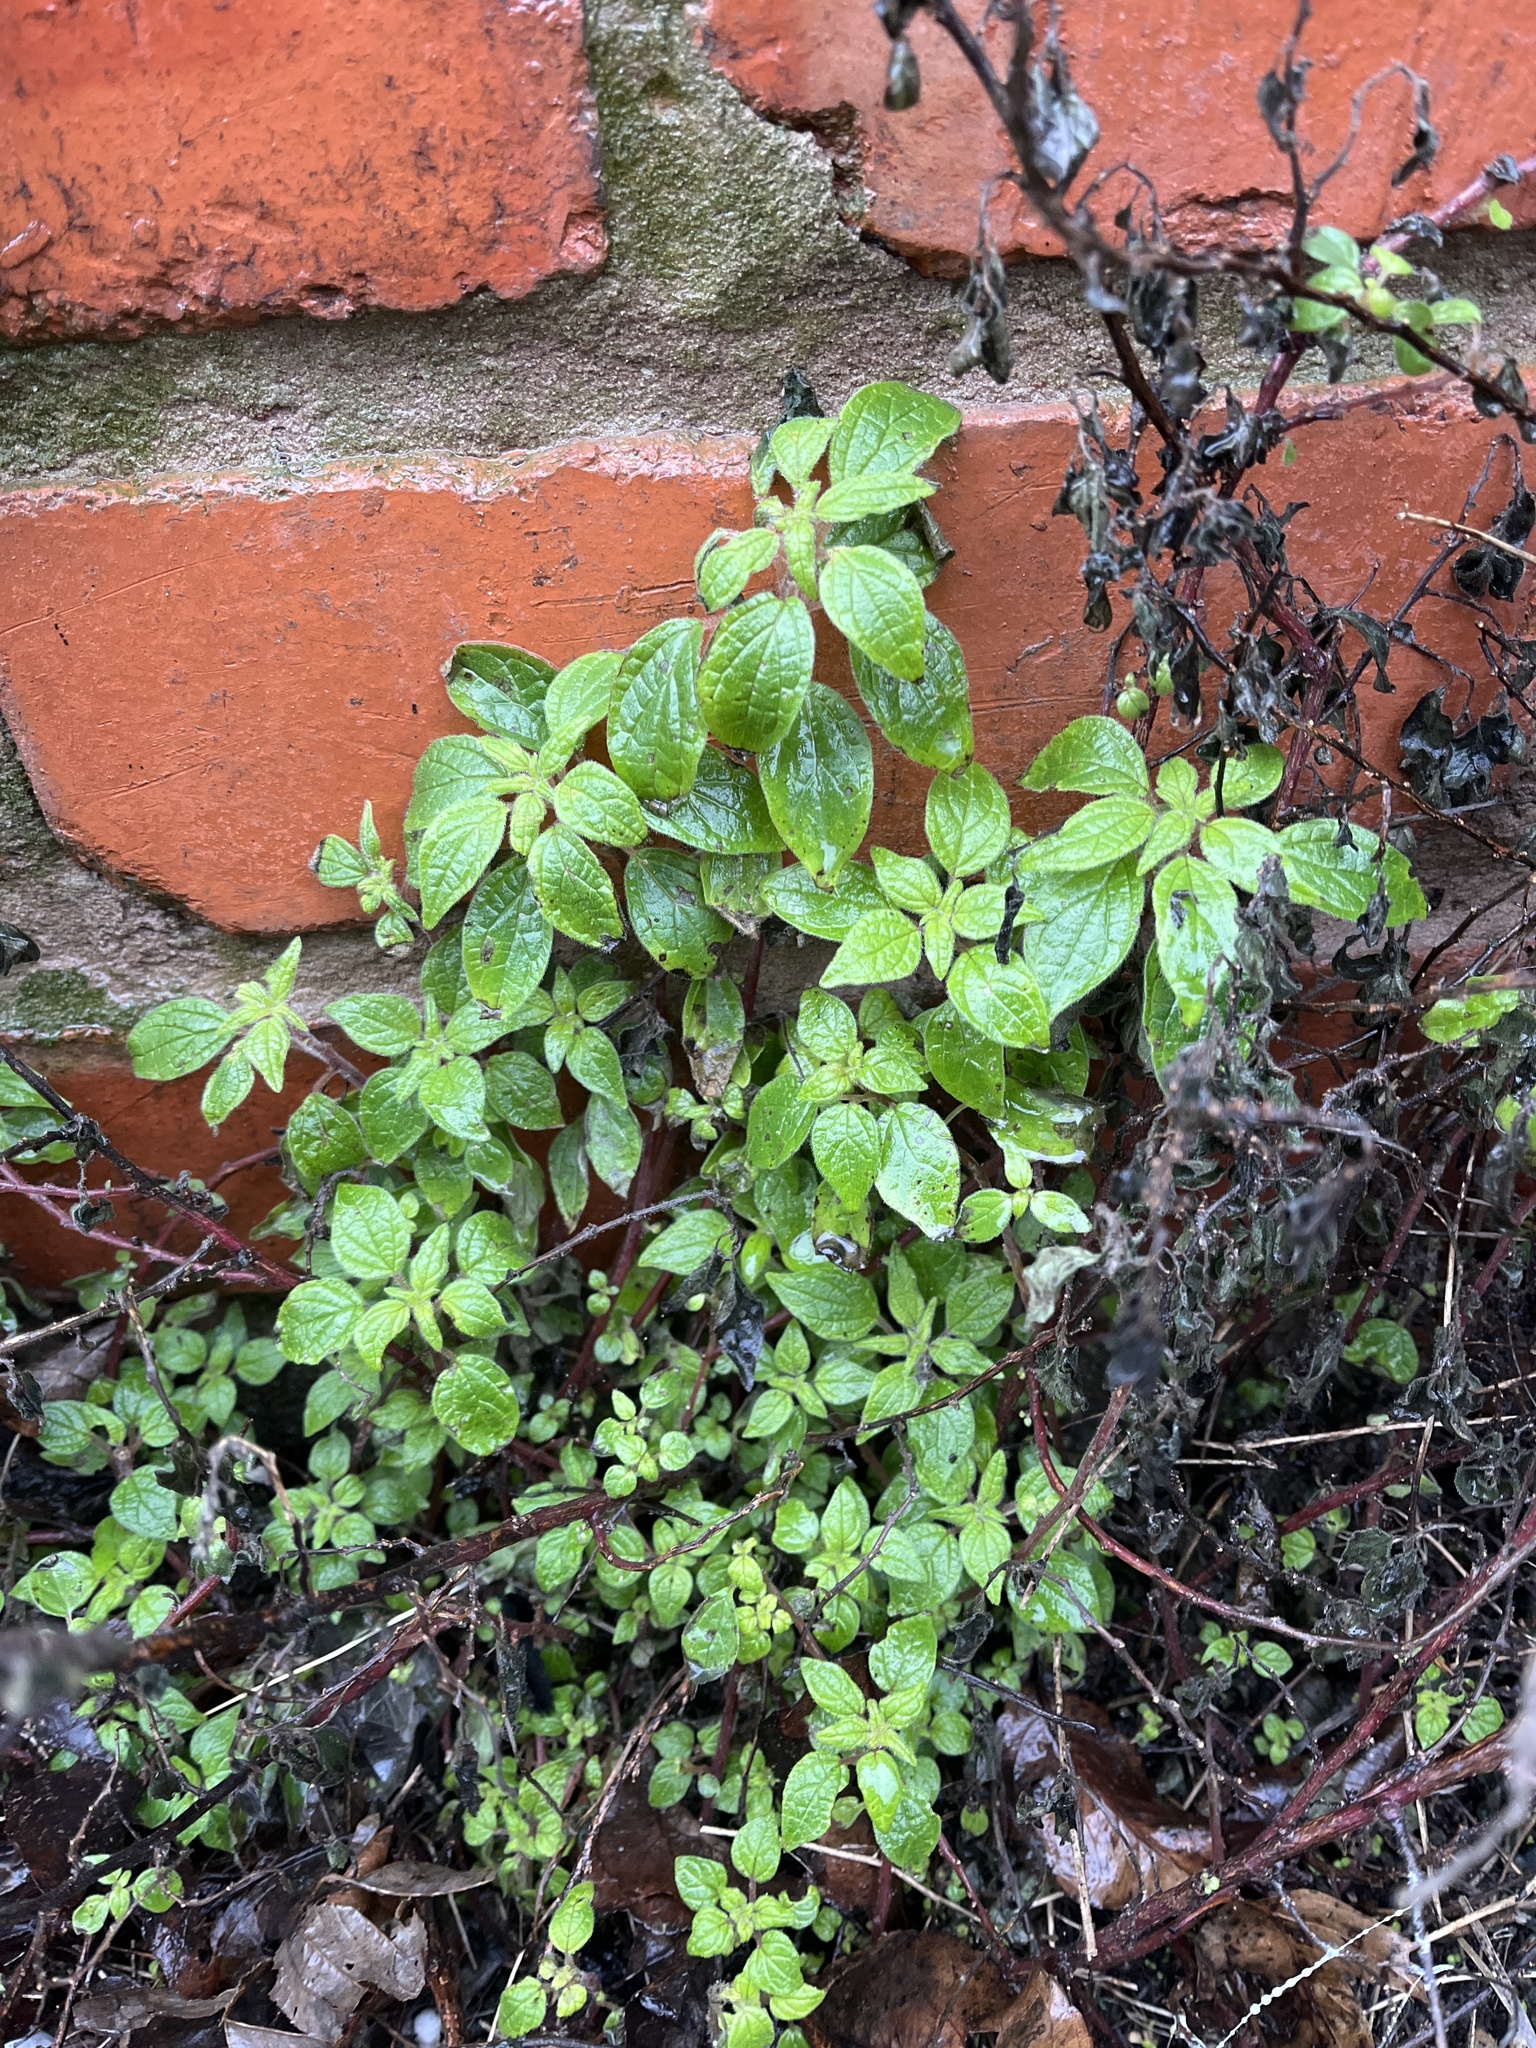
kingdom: Plantae
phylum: Tracheophyta
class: Magnoliopsida
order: Rosales
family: Urticaceae
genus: Parietaria
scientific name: Parietaria judaica
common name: Pellitory-of-the-wall
